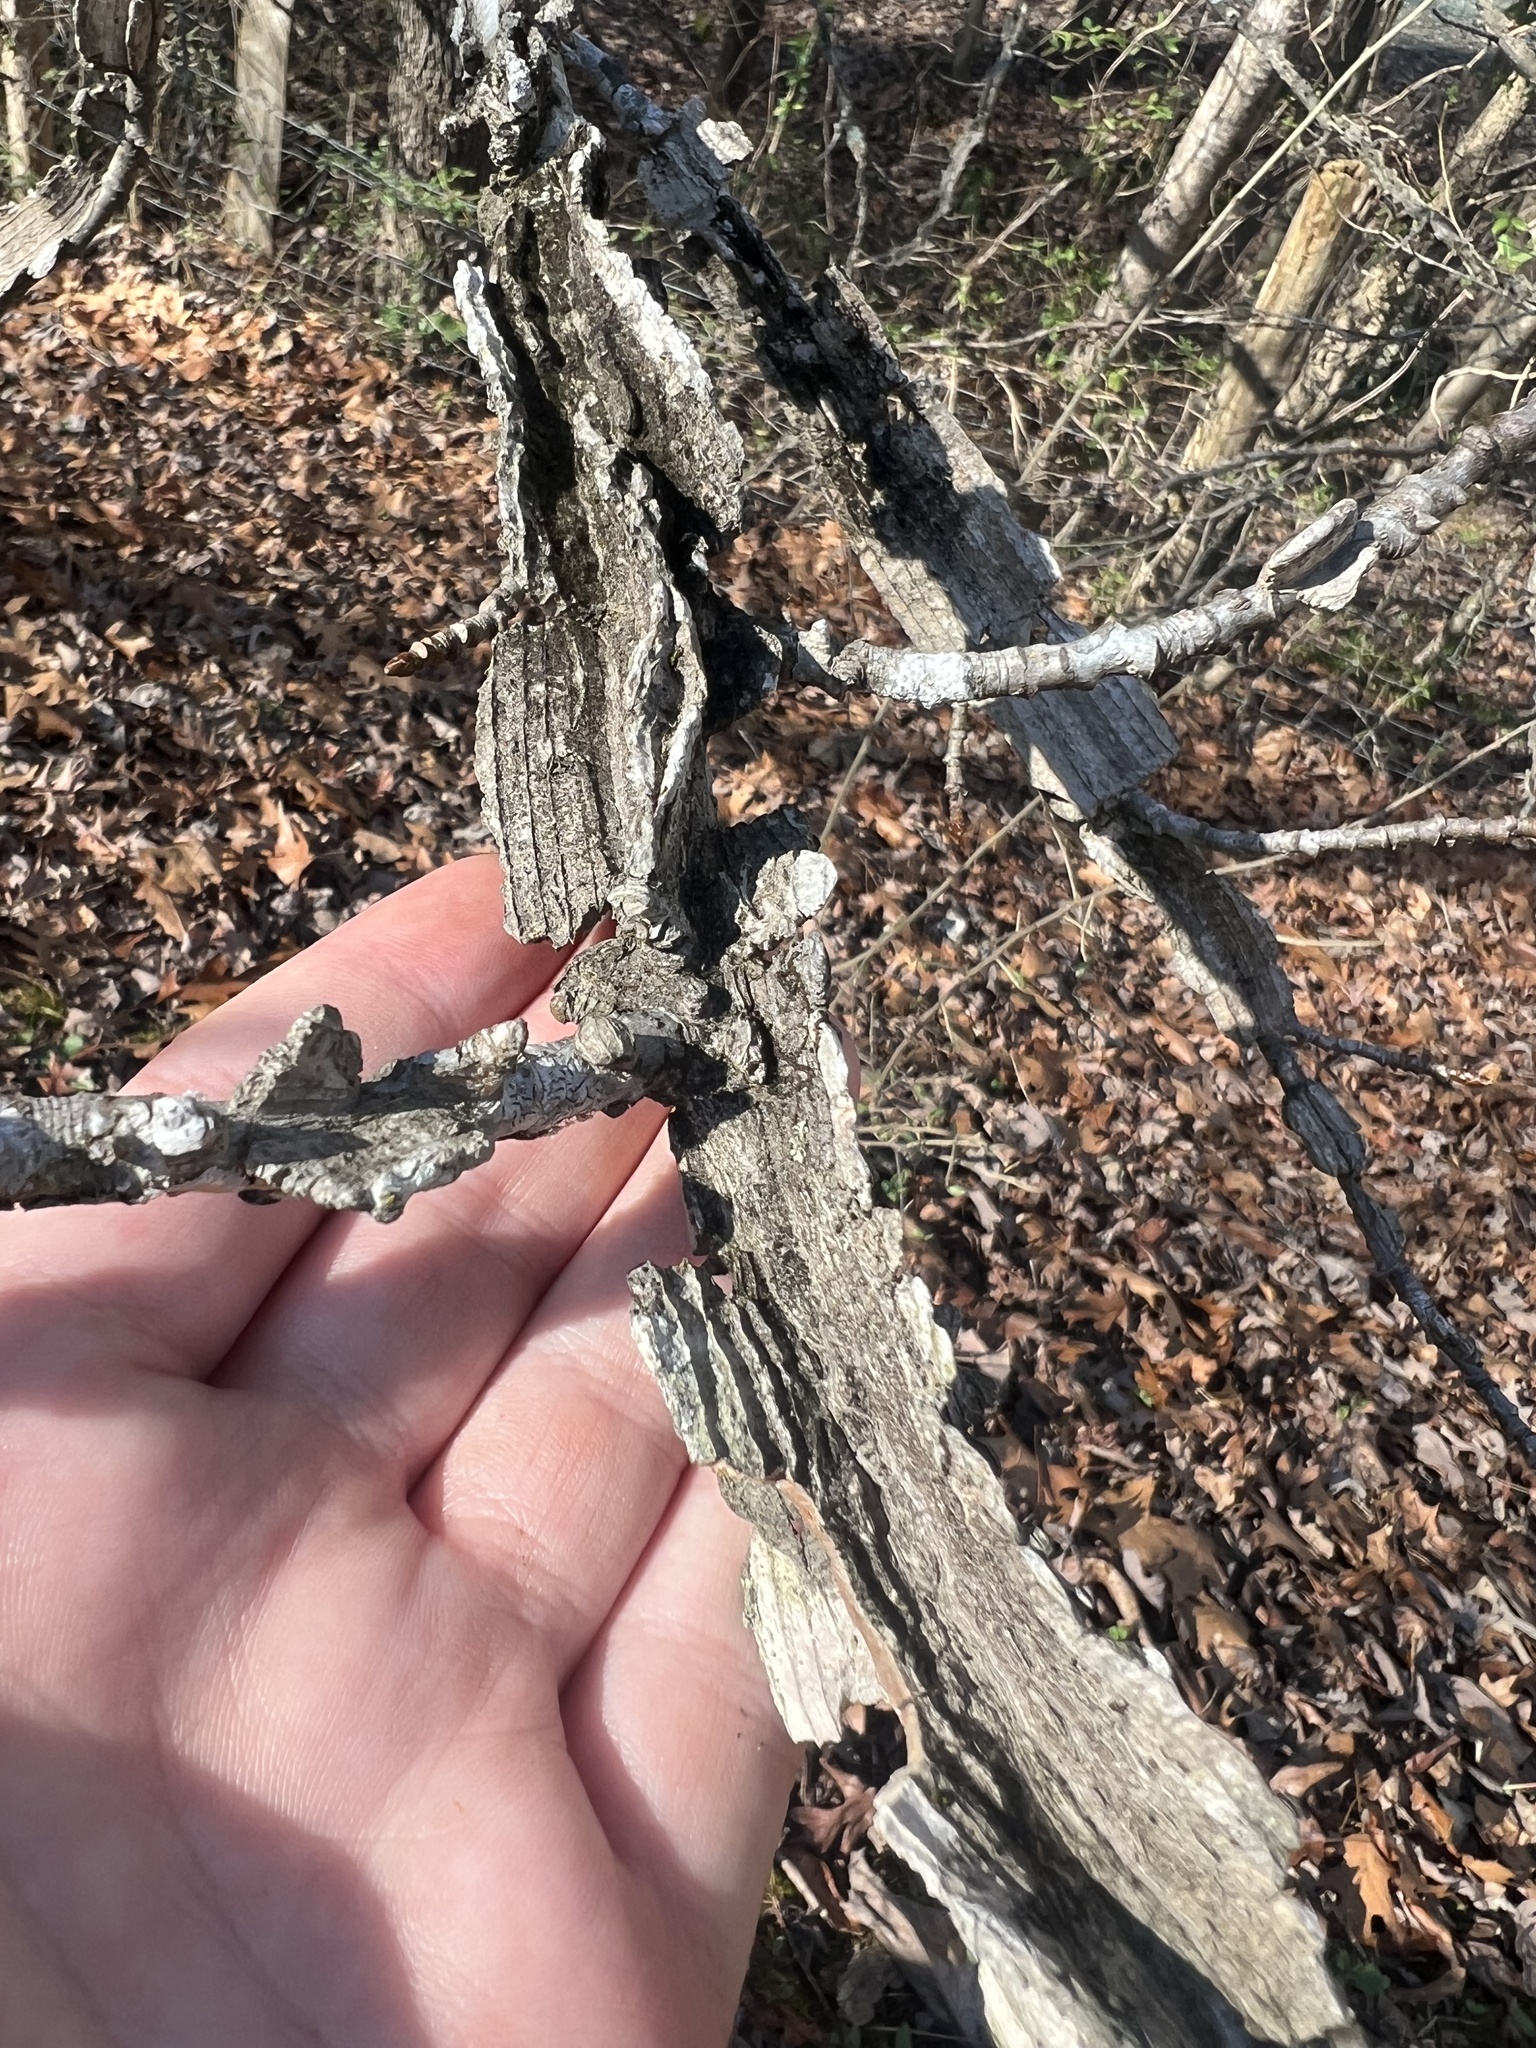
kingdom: Plantae
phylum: Tracheophyta
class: Magnoliopsida
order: Saxifragales
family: Altingiaceae
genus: Liquidambar
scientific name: Liquidambar styraciflua
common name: Sweet gum
